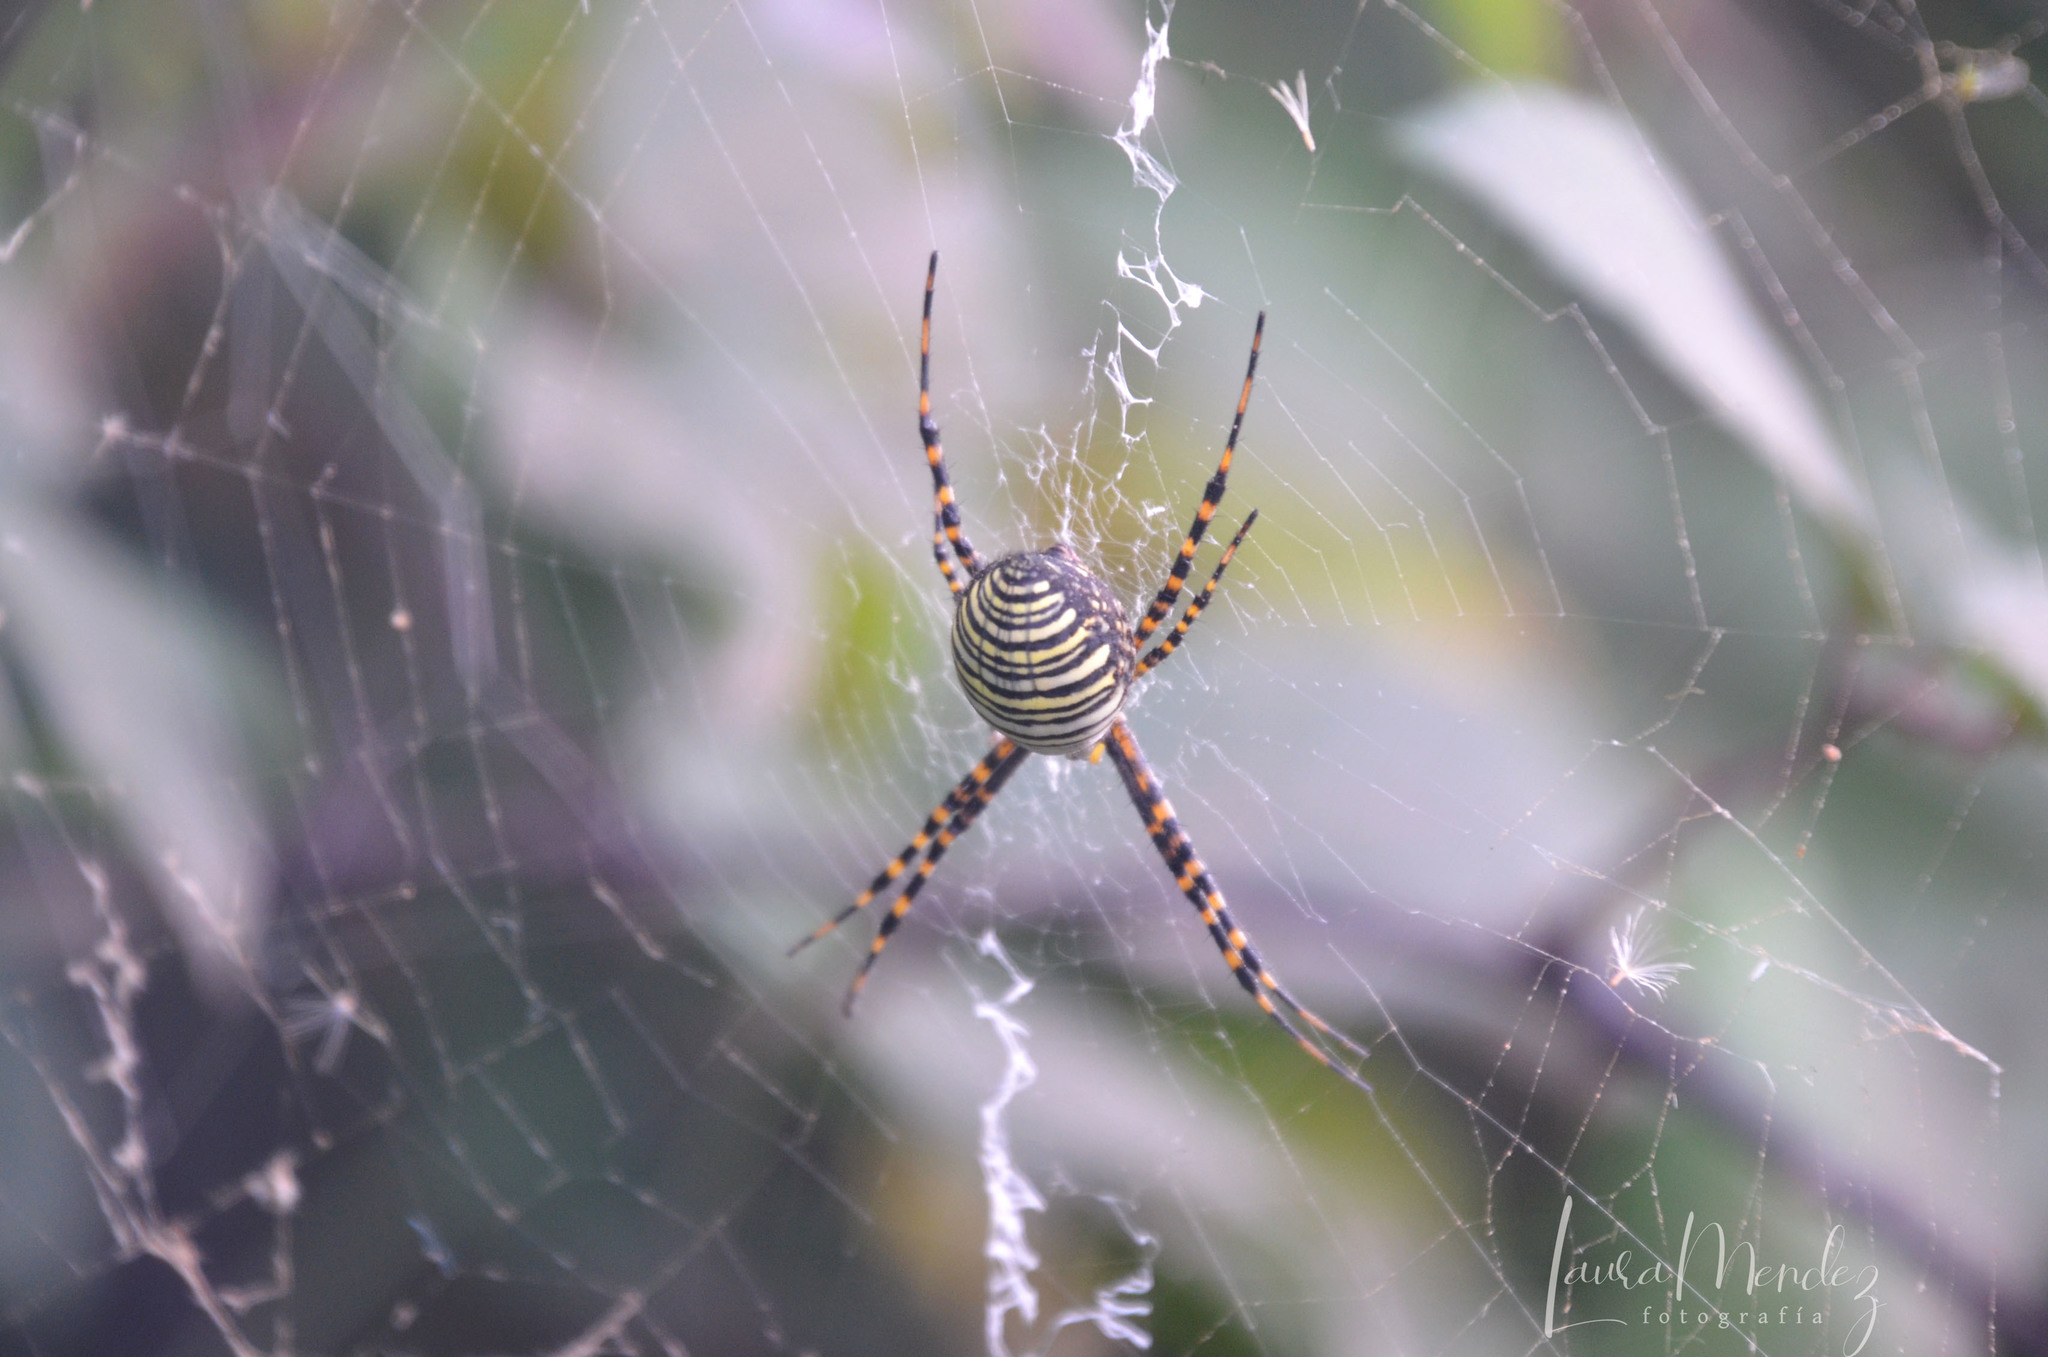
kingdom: Animalia
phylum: Arthropoda
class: Arachnida
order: Araneae
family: Araneidae
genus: Argiope
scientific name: Argiope trifasciata
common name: Banded garden spider
